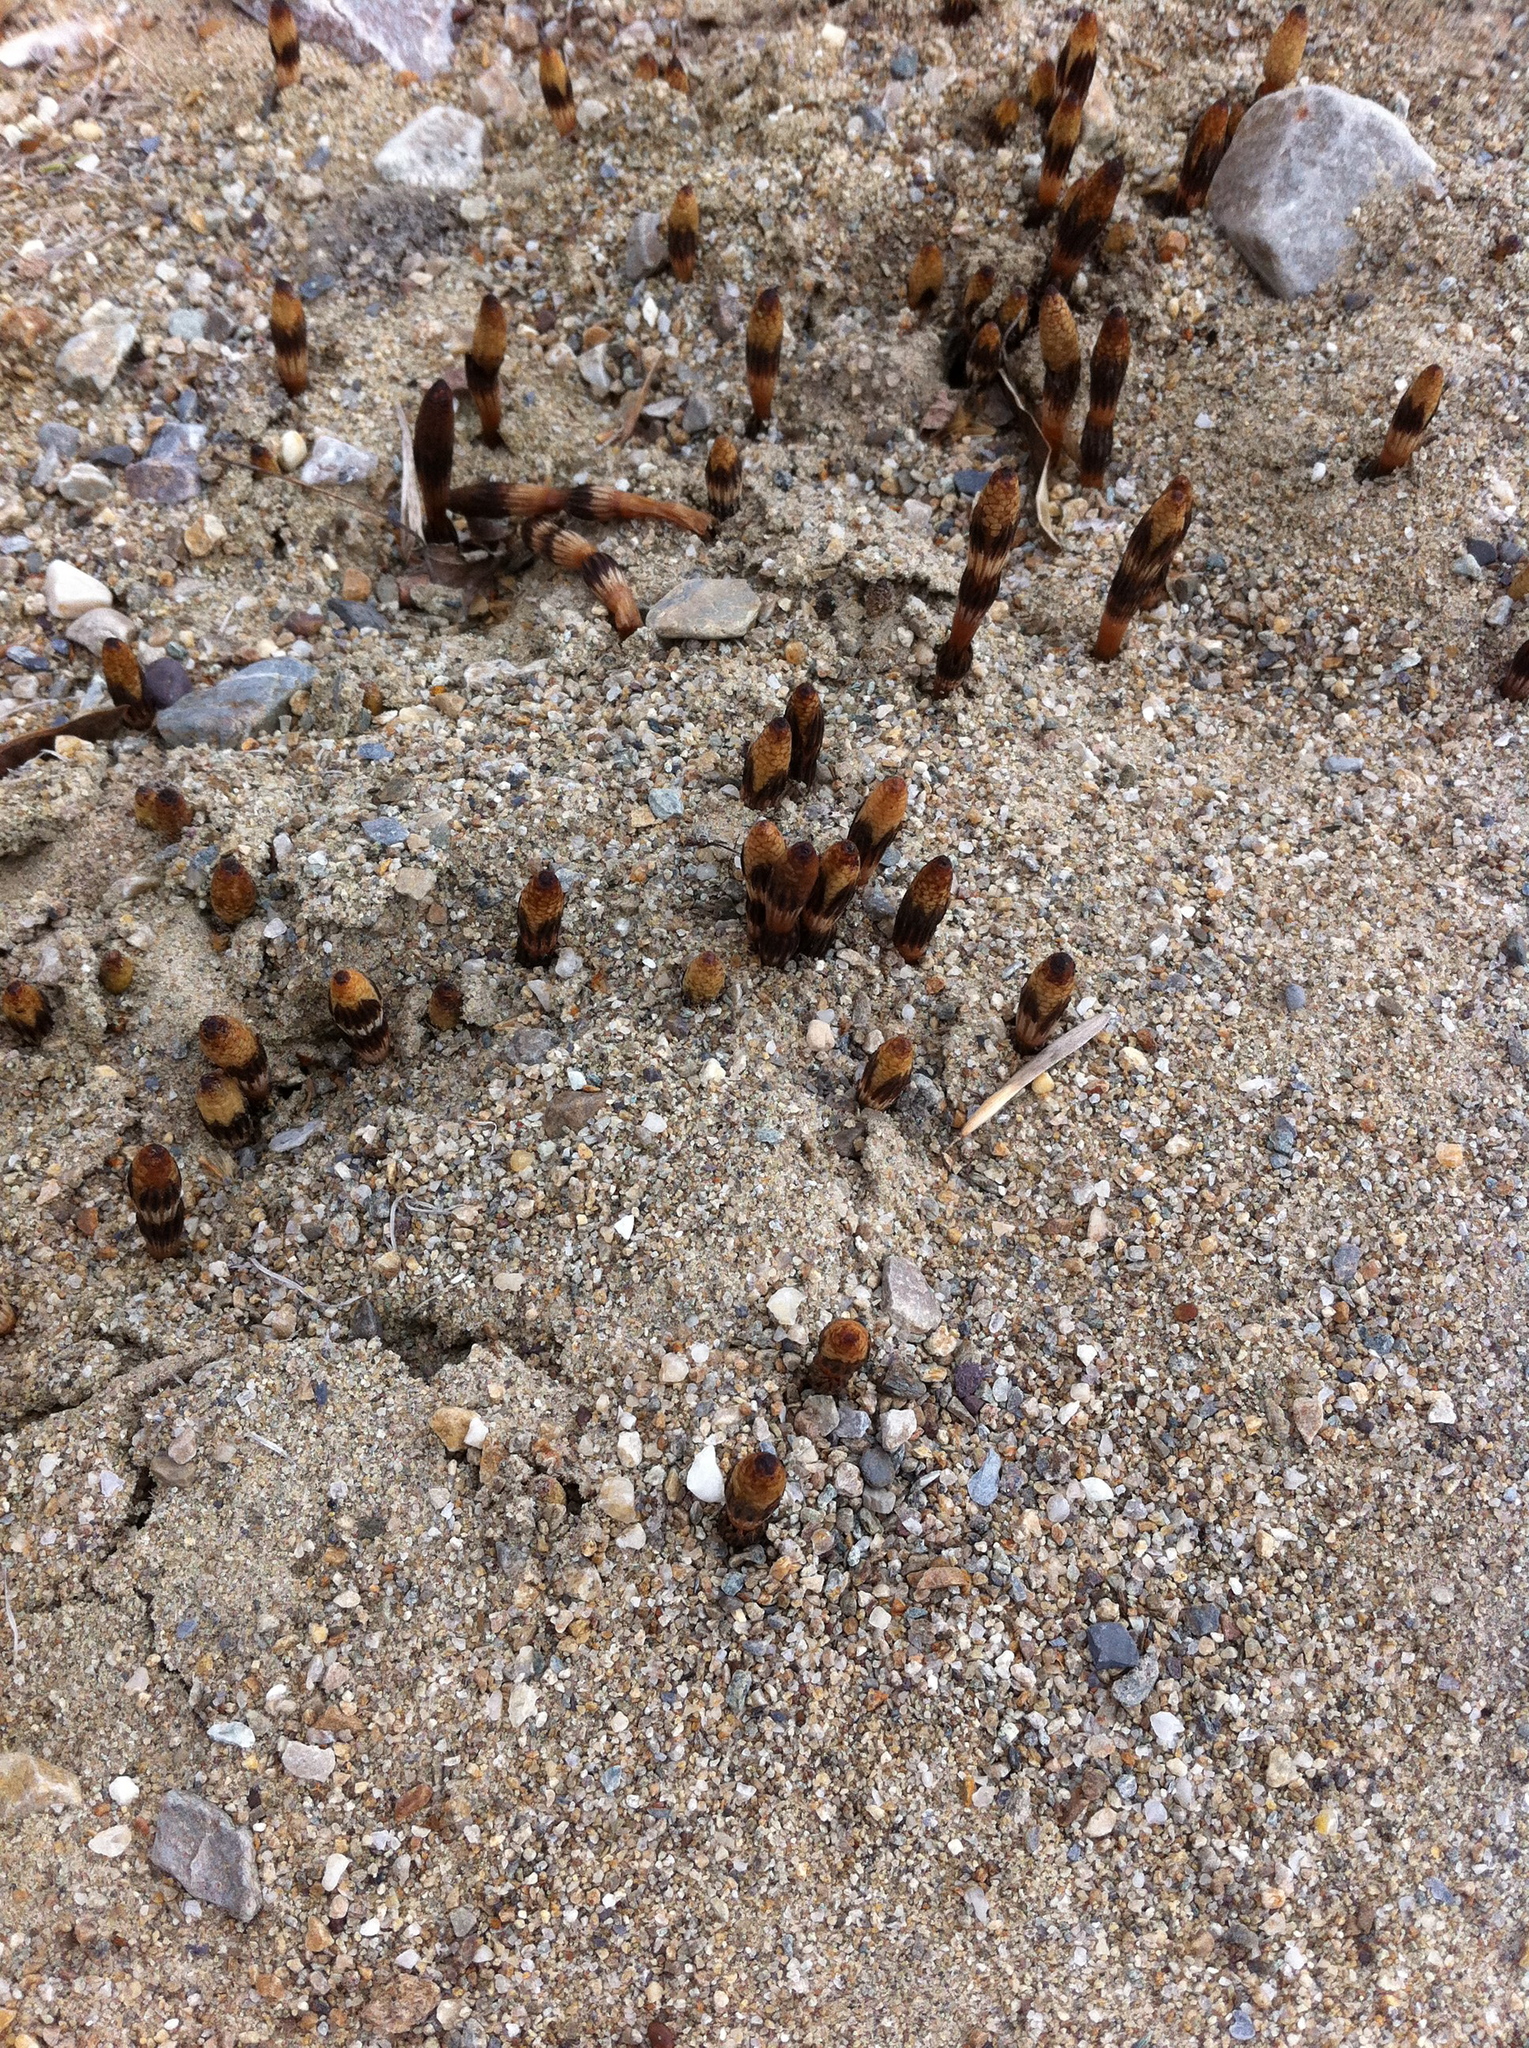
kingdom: Plantae
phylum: Tracheophyta
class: Polypodiopsida
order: Equisetales
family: Equisetaceae
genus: Equisetum
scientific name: Equisetum arvense
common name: Field horsetail
